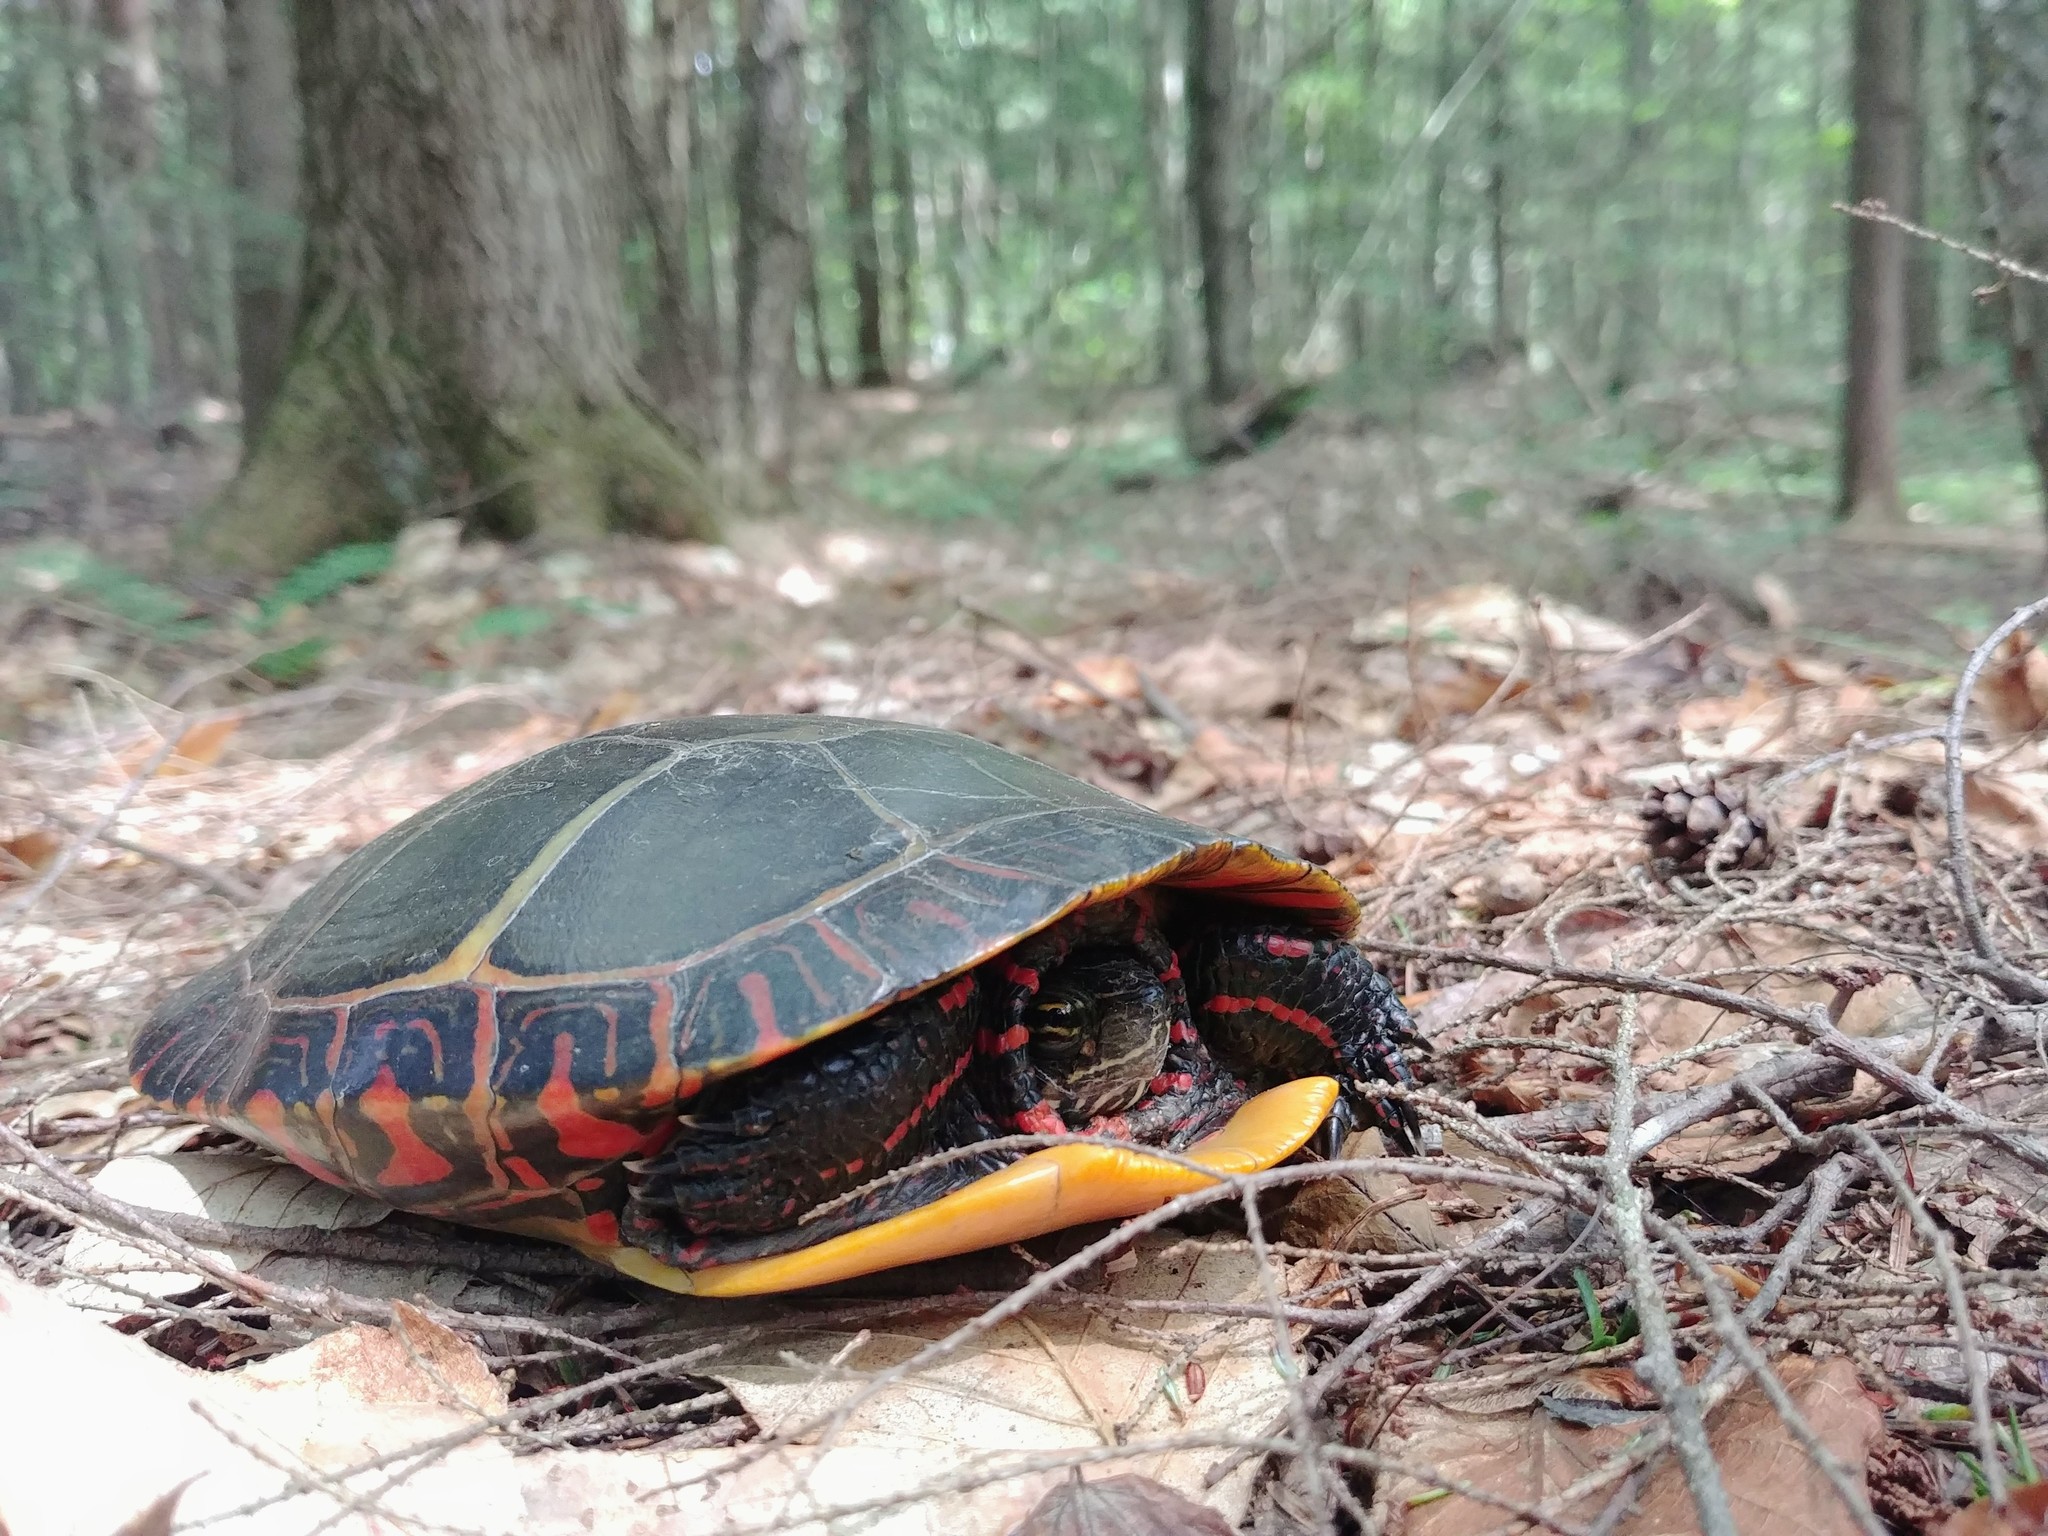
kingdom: Animalia
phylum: Chordata
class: Testudines
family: Emydidae
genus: Chrysemys
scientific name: Chrysemys picta
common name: Painted turtle
